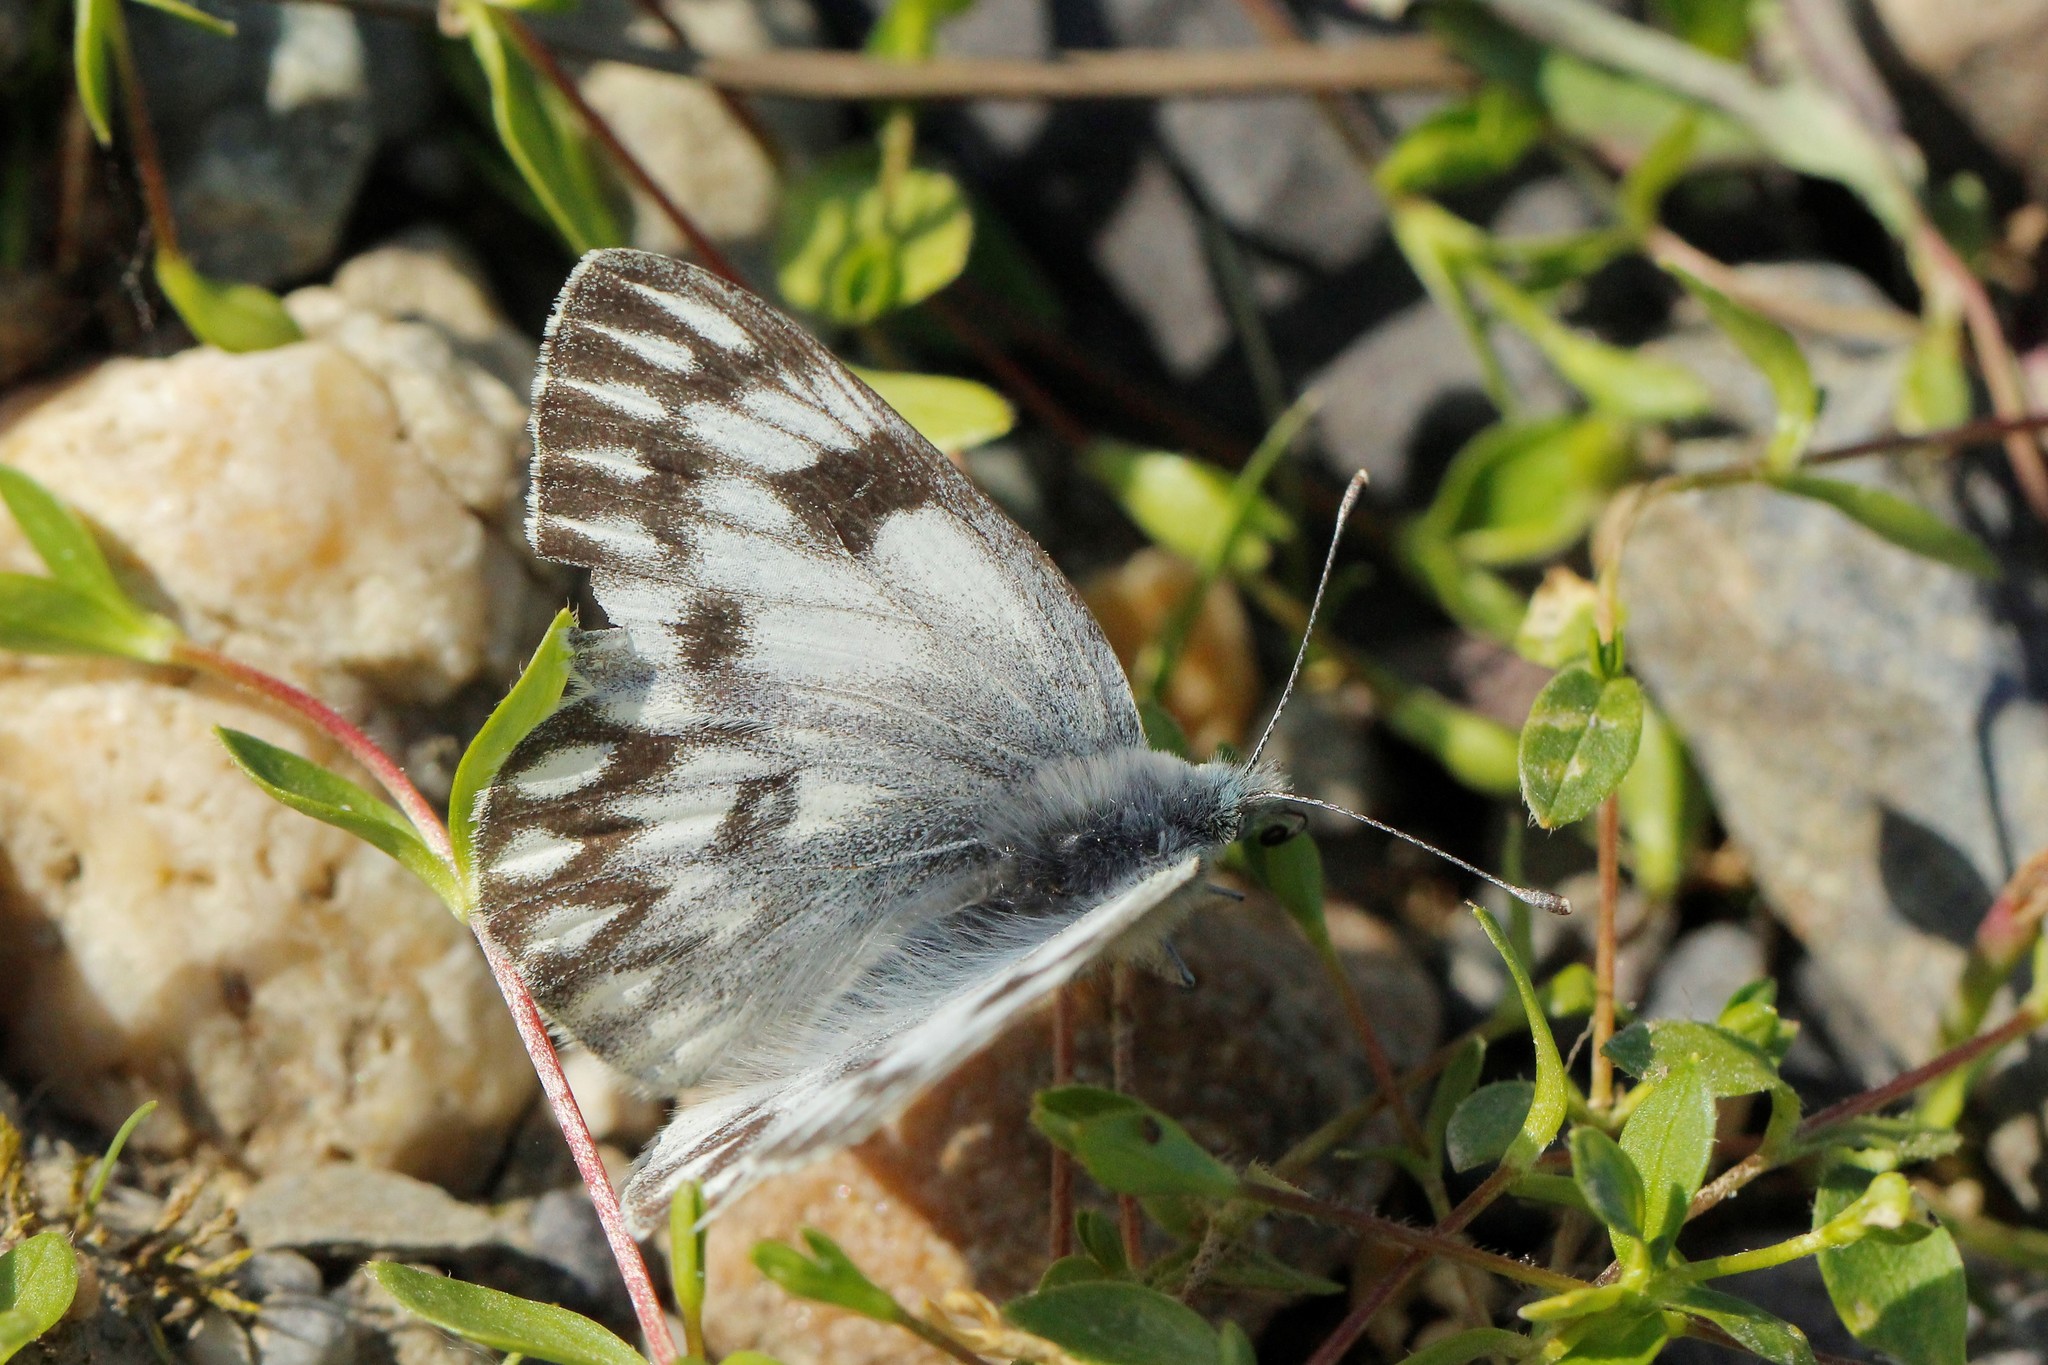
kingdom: Animalia
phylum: Arthropoda
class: Insecta
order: Lepidoptera
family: Pieridae
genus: Pontia
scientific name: Pontia callidice
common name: Peak white
